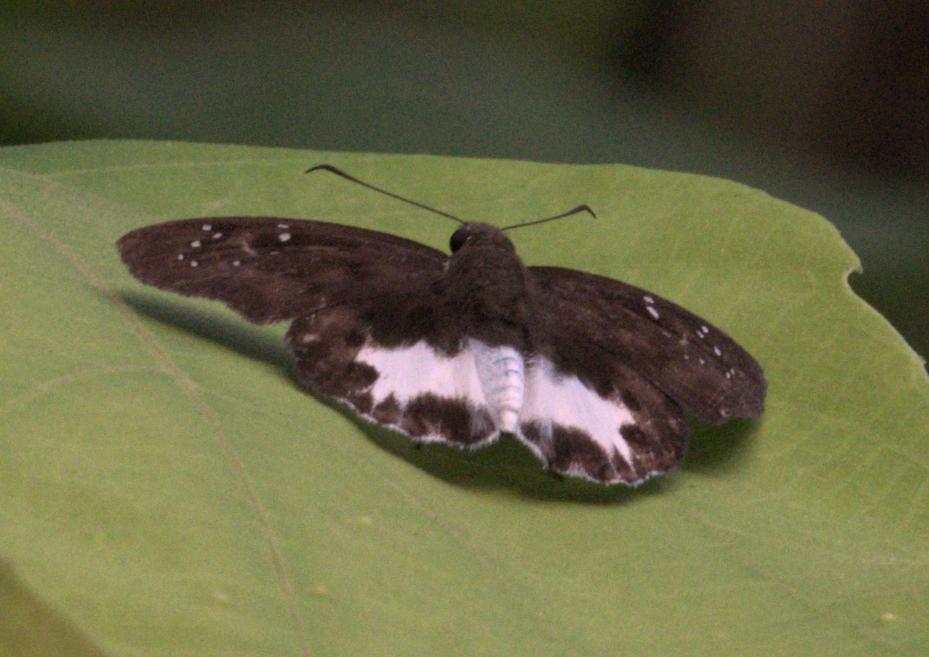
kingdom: Animalia
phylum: Arthropoda
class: Insecta
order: Lepidoptera
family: Hesperiidae
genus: Tagiades
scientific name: Tagiades litigiosa
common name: Water snow flat
